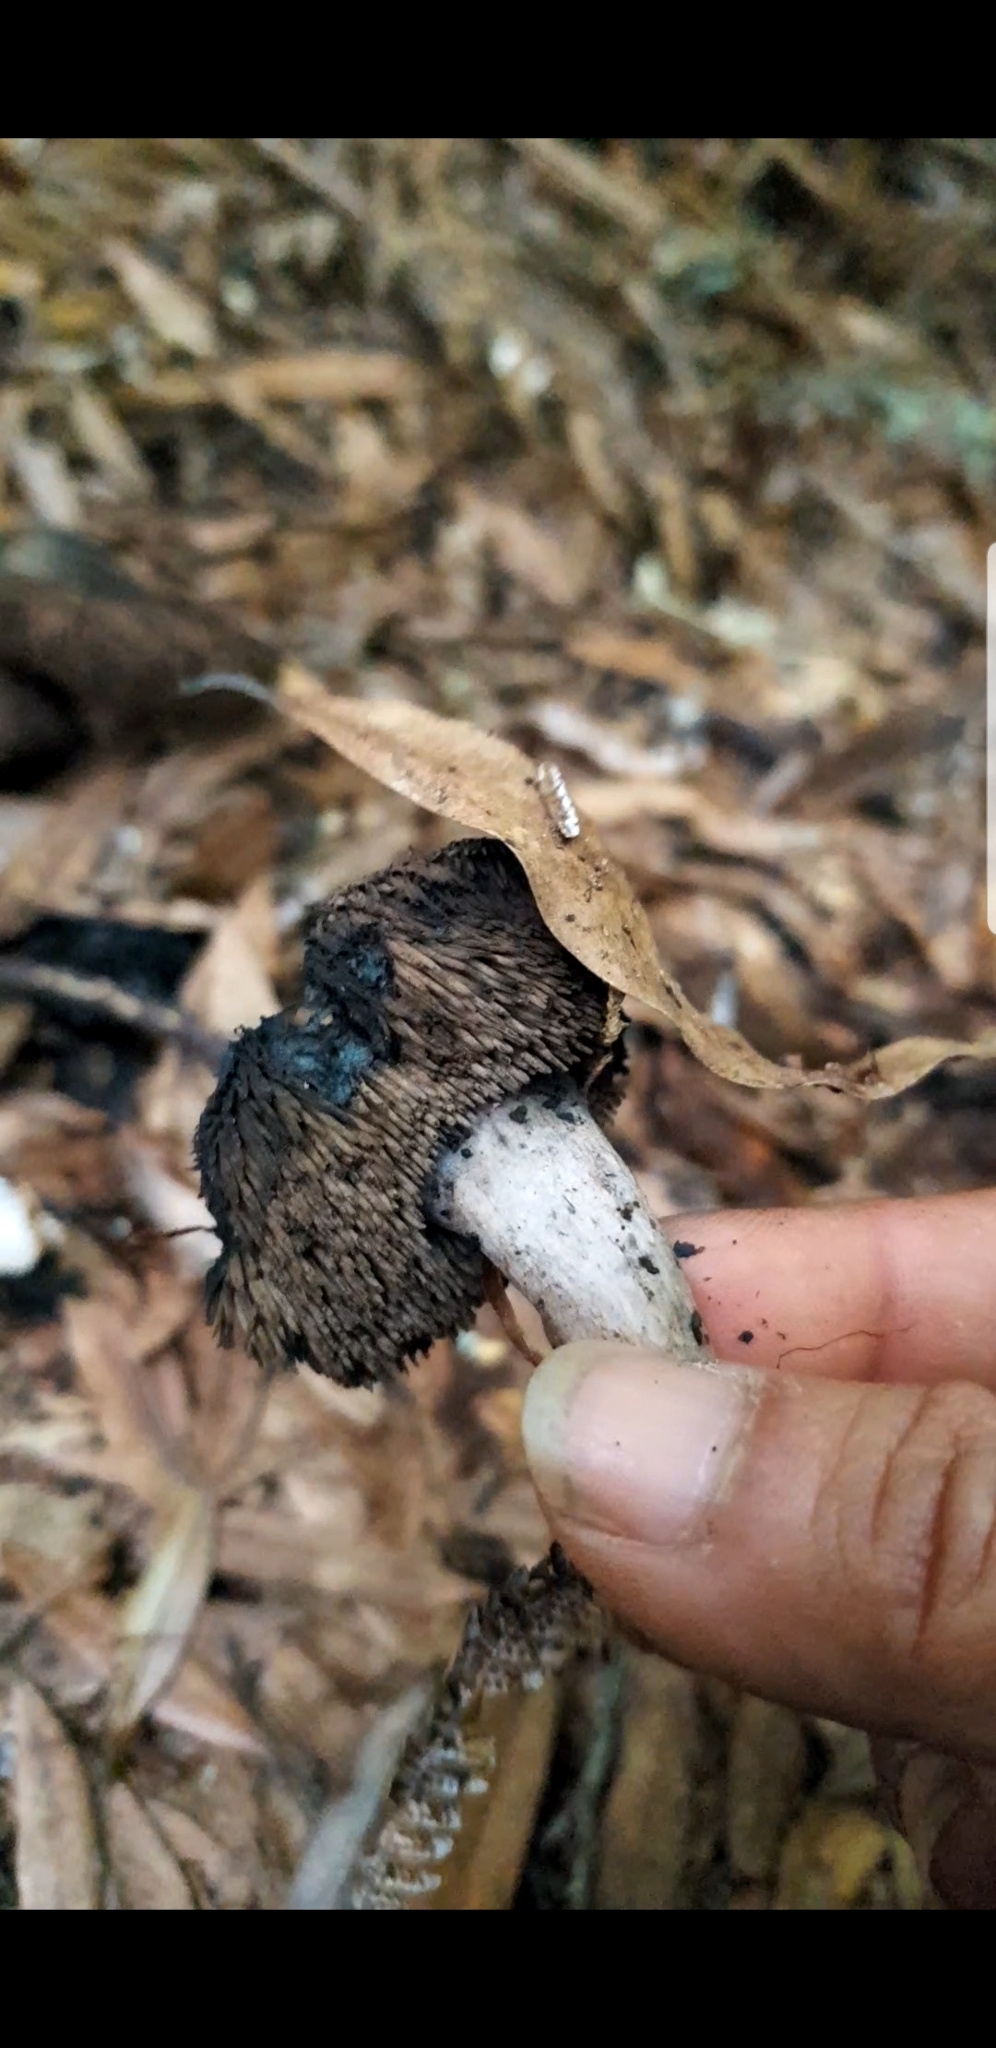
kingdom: Fungi
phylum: Basidiomycota
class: Agaricomycetes
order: Thelephorales
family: Bankeraceae
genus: Sarcodon
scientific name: Sarcodon carbonarius
